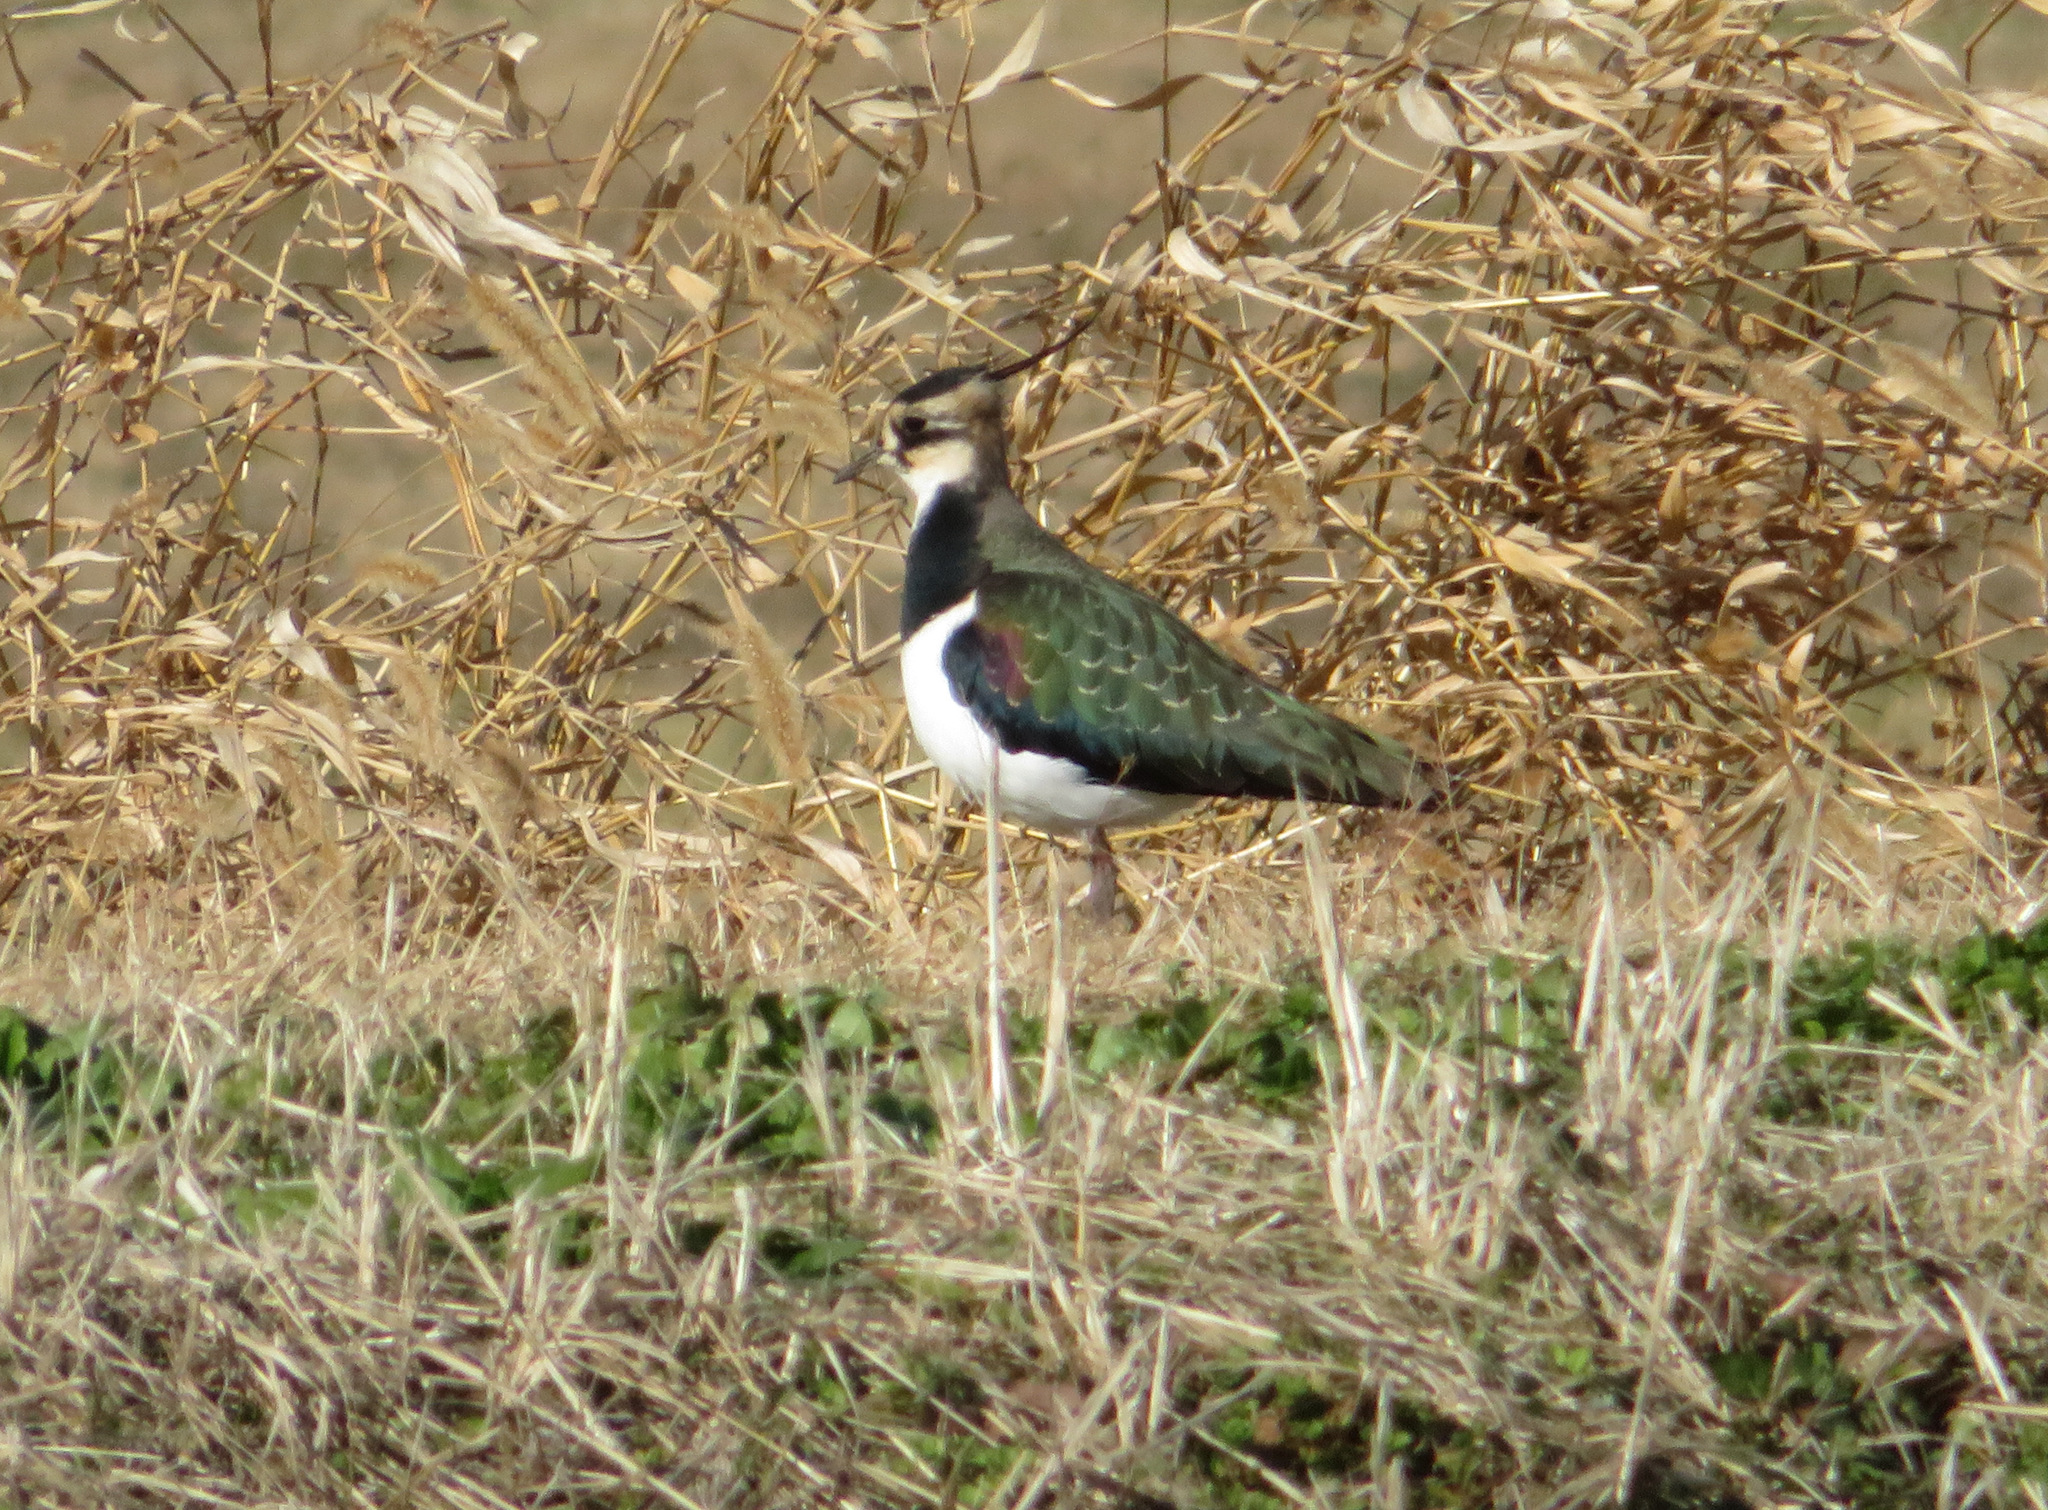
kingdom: Animalia
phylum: Chordata
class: Aves
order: Charadriiformes
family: Charadriidae
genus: Vanellus
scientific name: Vanellus vanellus
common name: Northern lapwing
